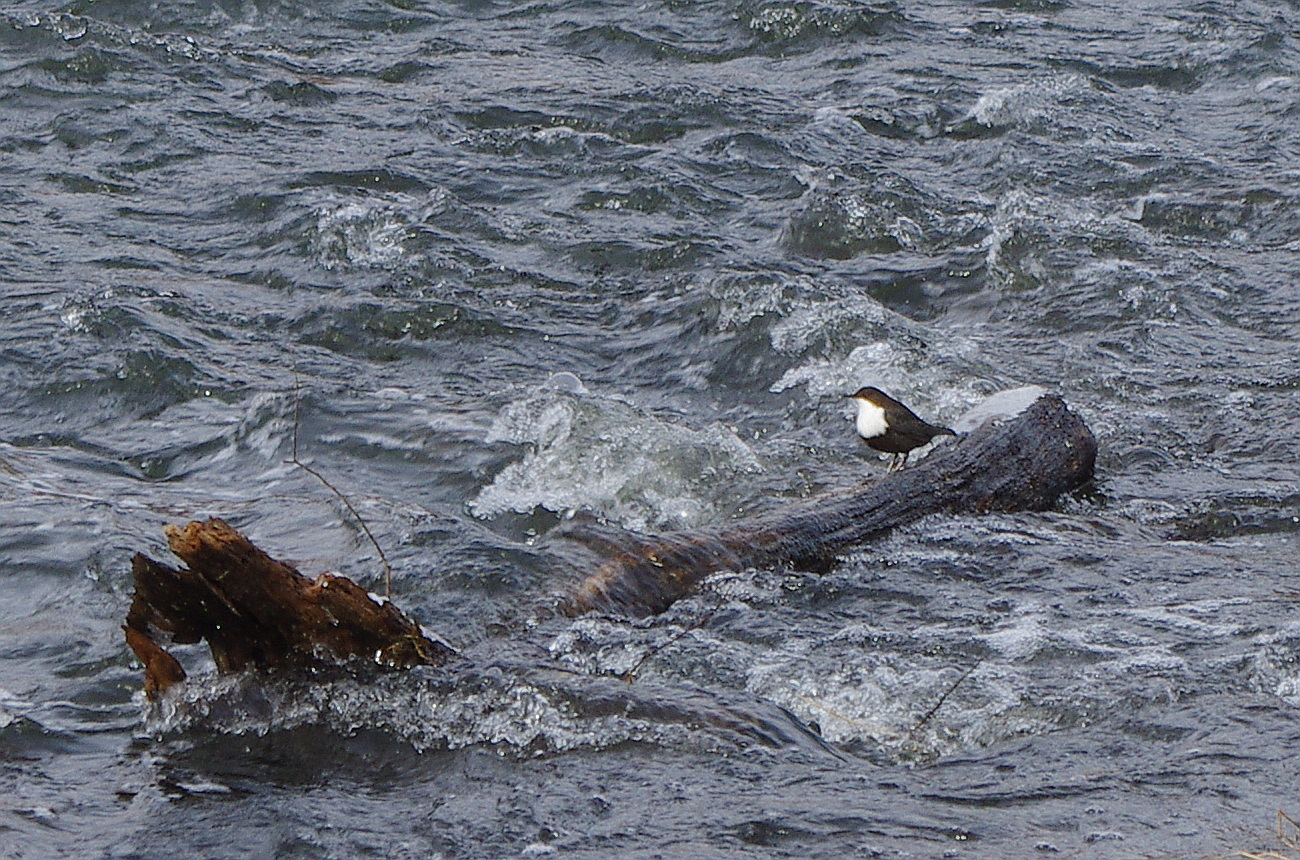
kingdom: Animalia
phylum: Chordata
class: Aves
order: Passeriformes
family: Cinclidae
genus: Cinclus
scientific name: Cinclus cinclus
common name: White-throated dipper
